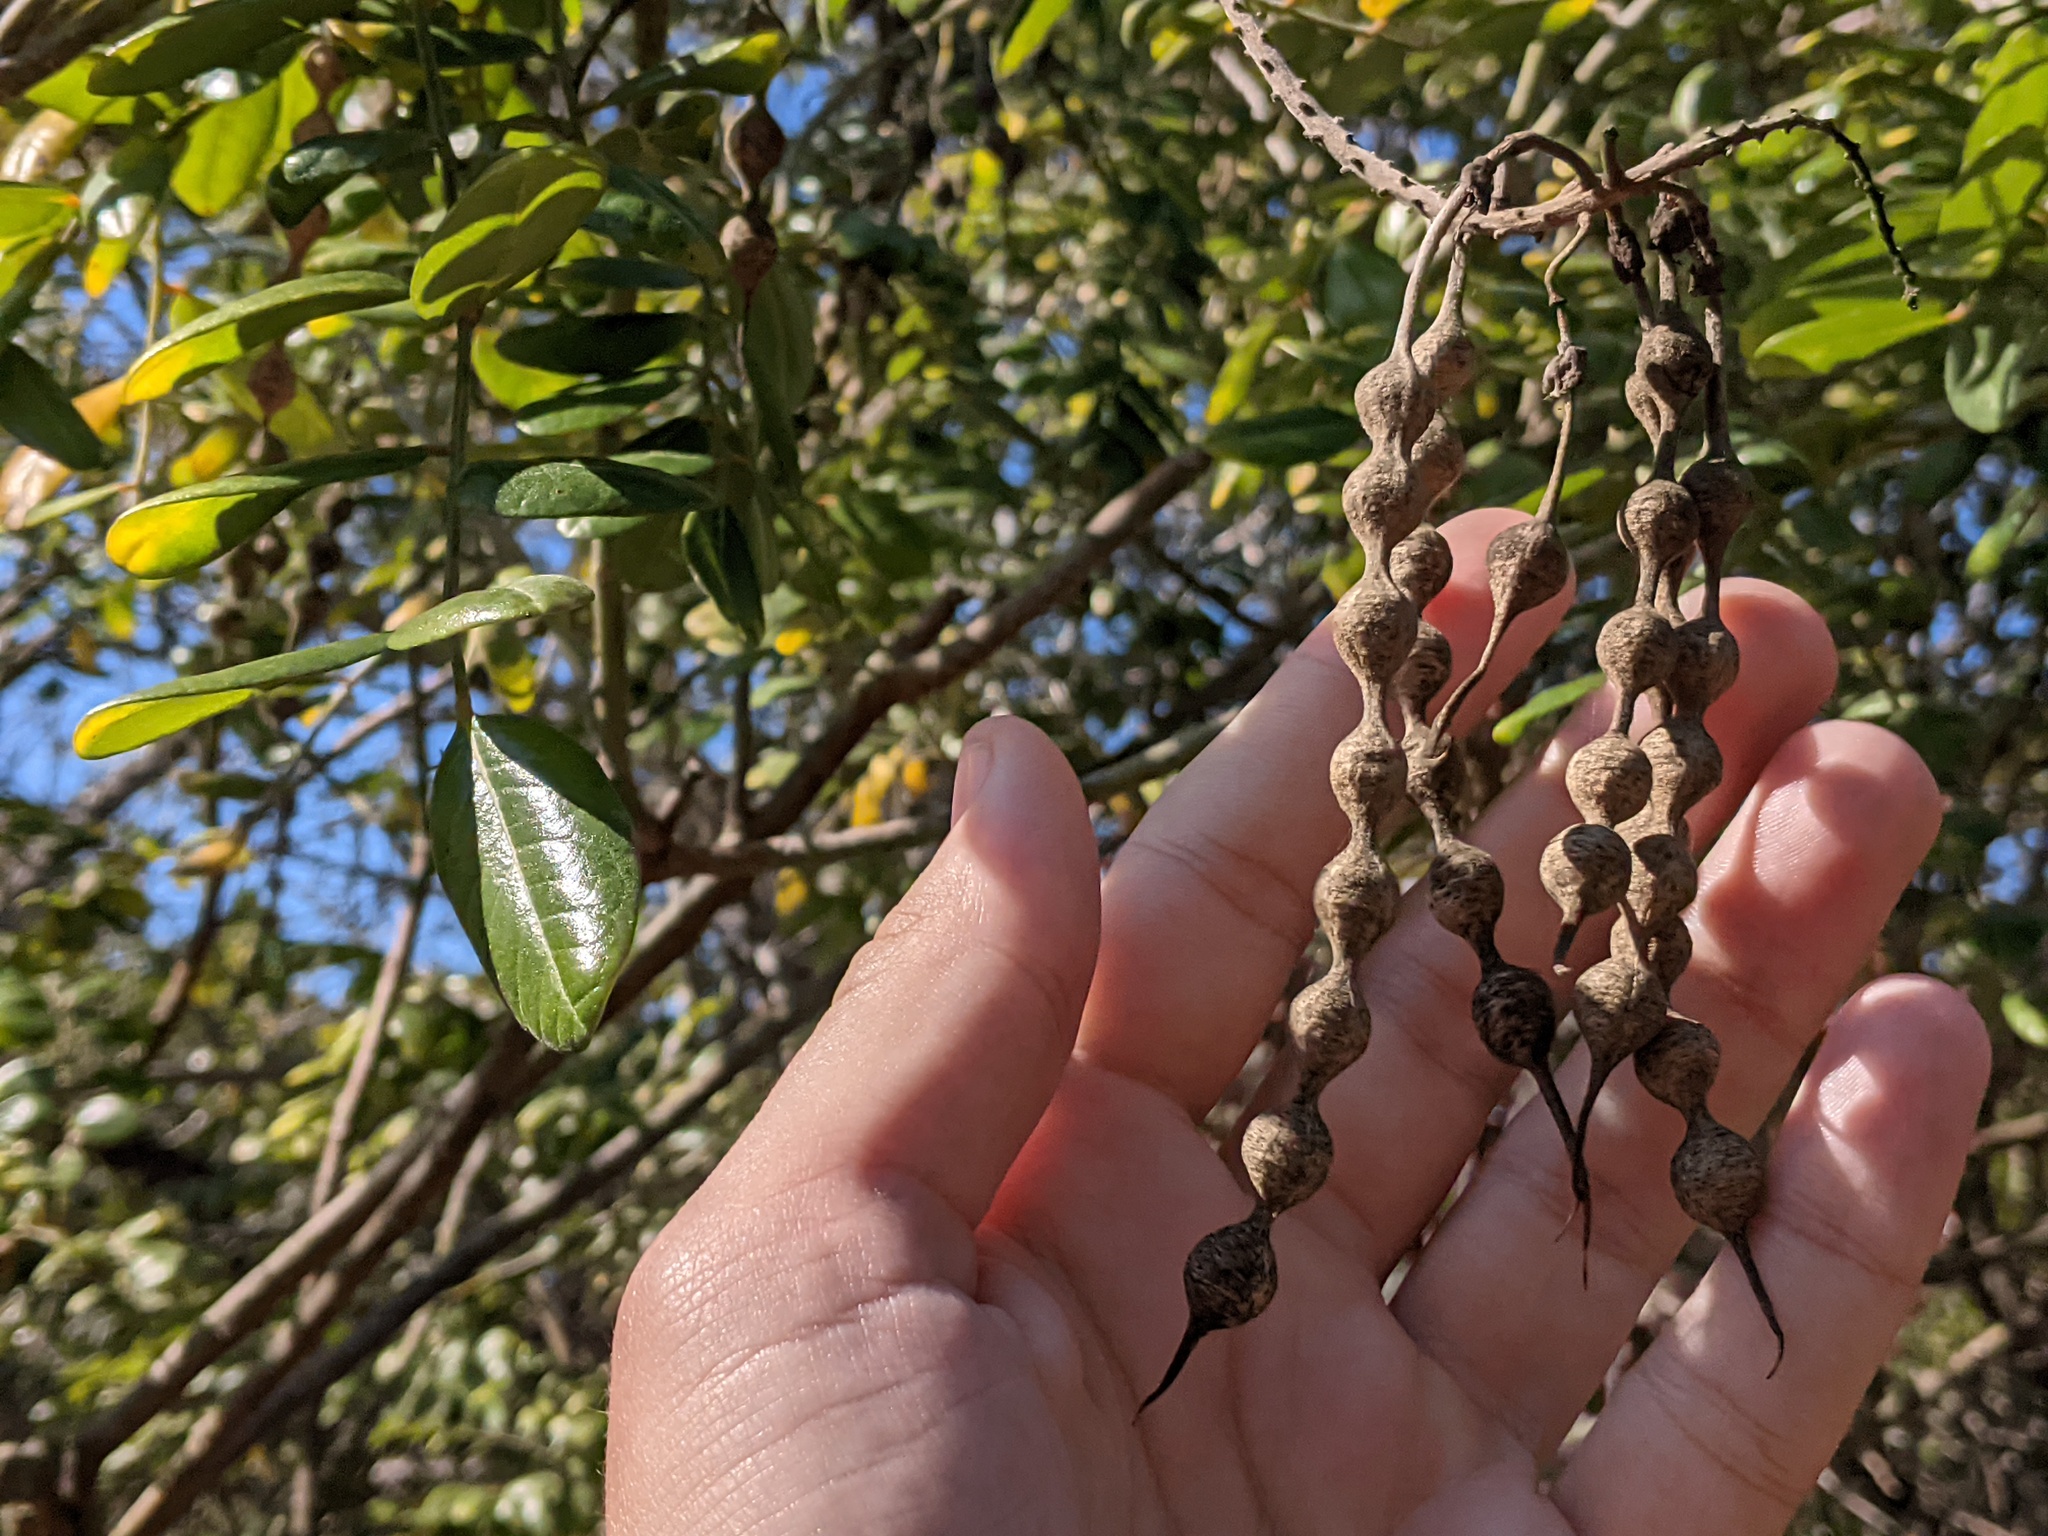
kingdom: Plantae
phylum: Tracheophyta
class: Magnoliopsida
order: Fabales
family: Fabaceae
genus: Sophora
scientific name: Sophora tomentosa
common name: Yellow necklacepod
